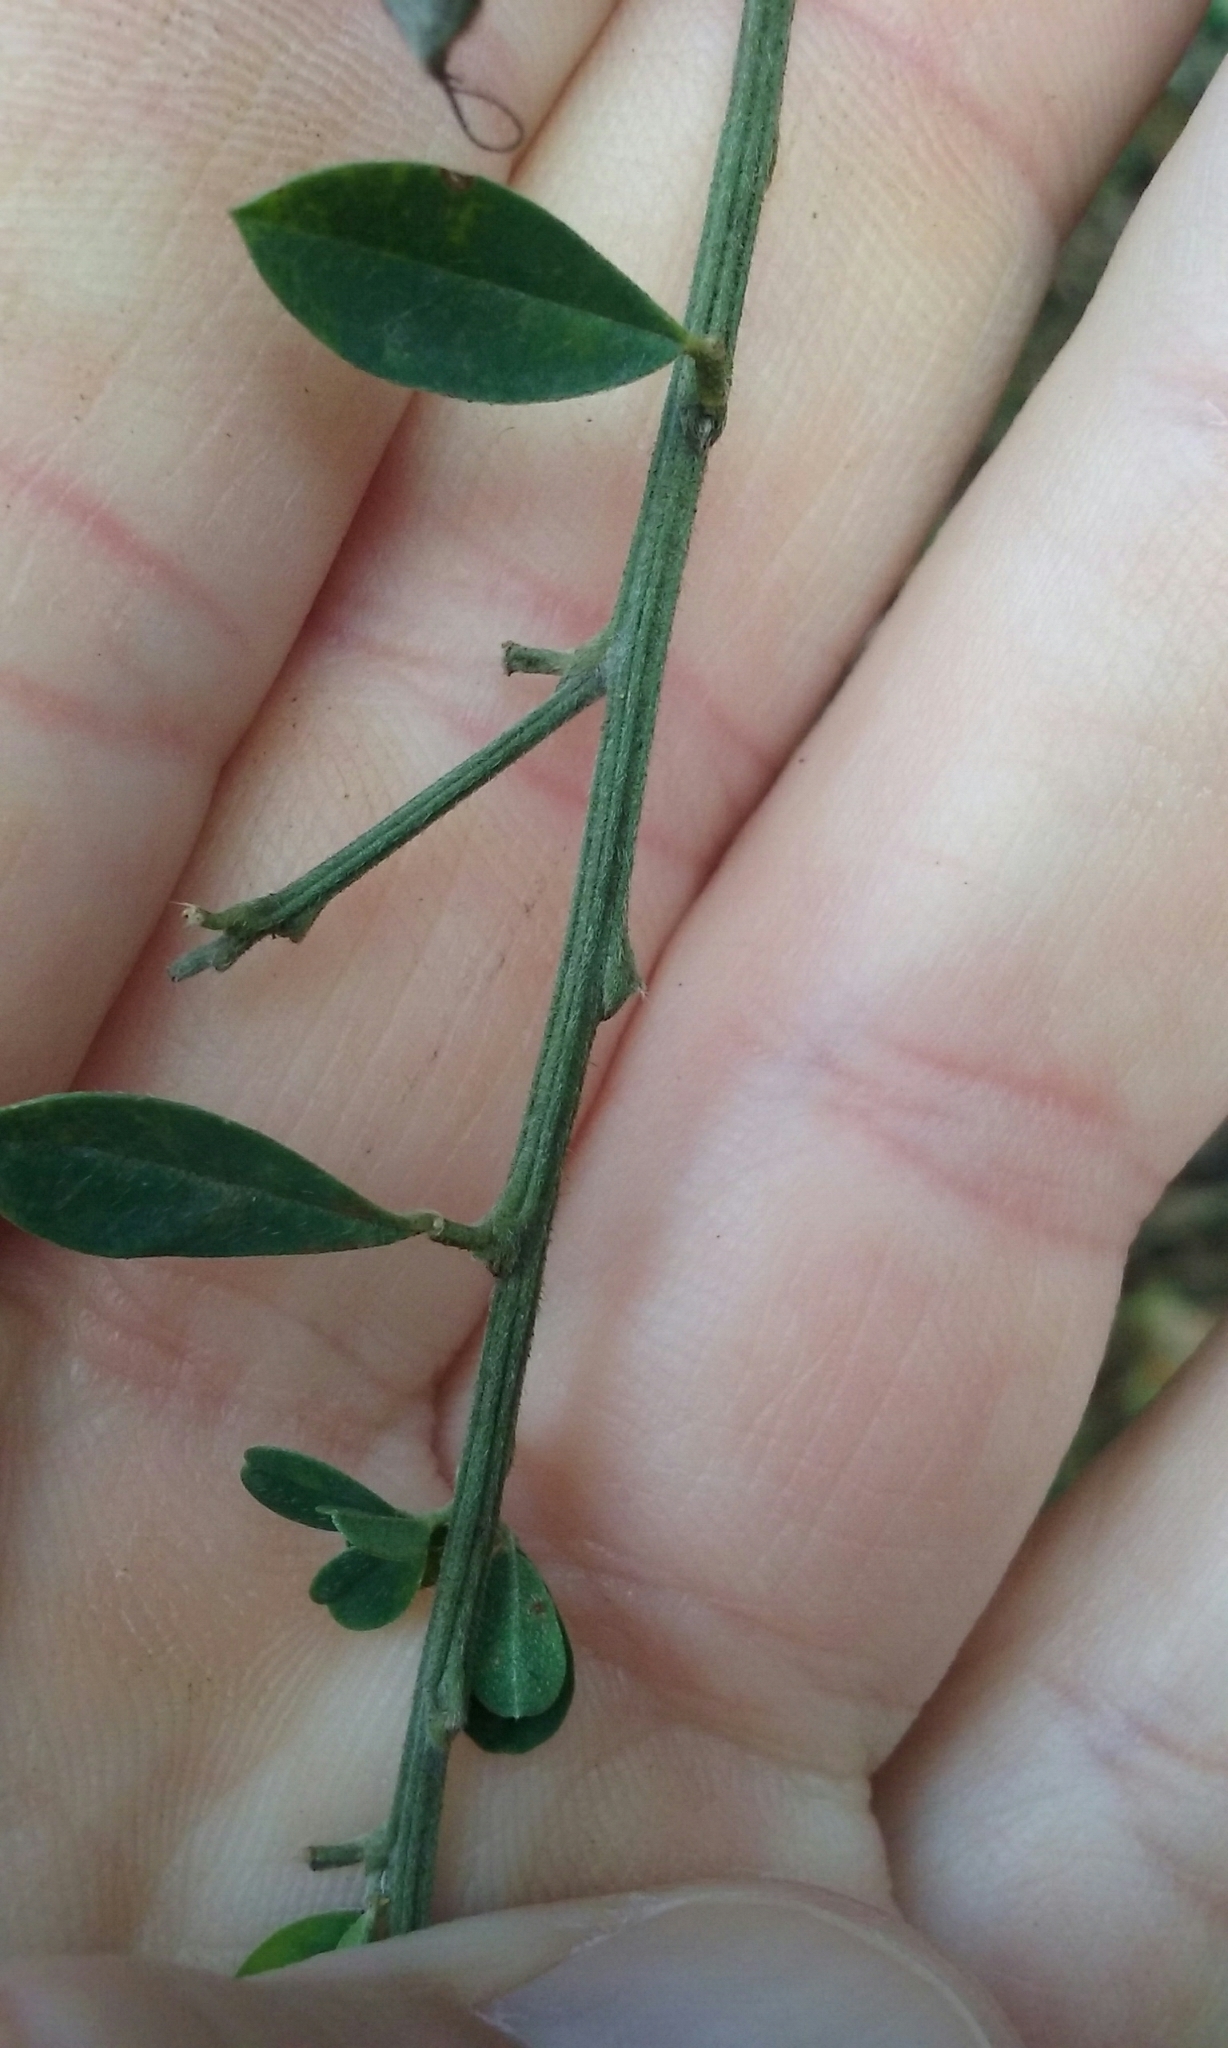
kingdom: Plantae
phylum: Tracheophyta
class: Magnoliopsida
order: Fabales
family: Fabaceae
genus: Genista
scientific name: Genista monspessulana
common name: Montpellier broom
